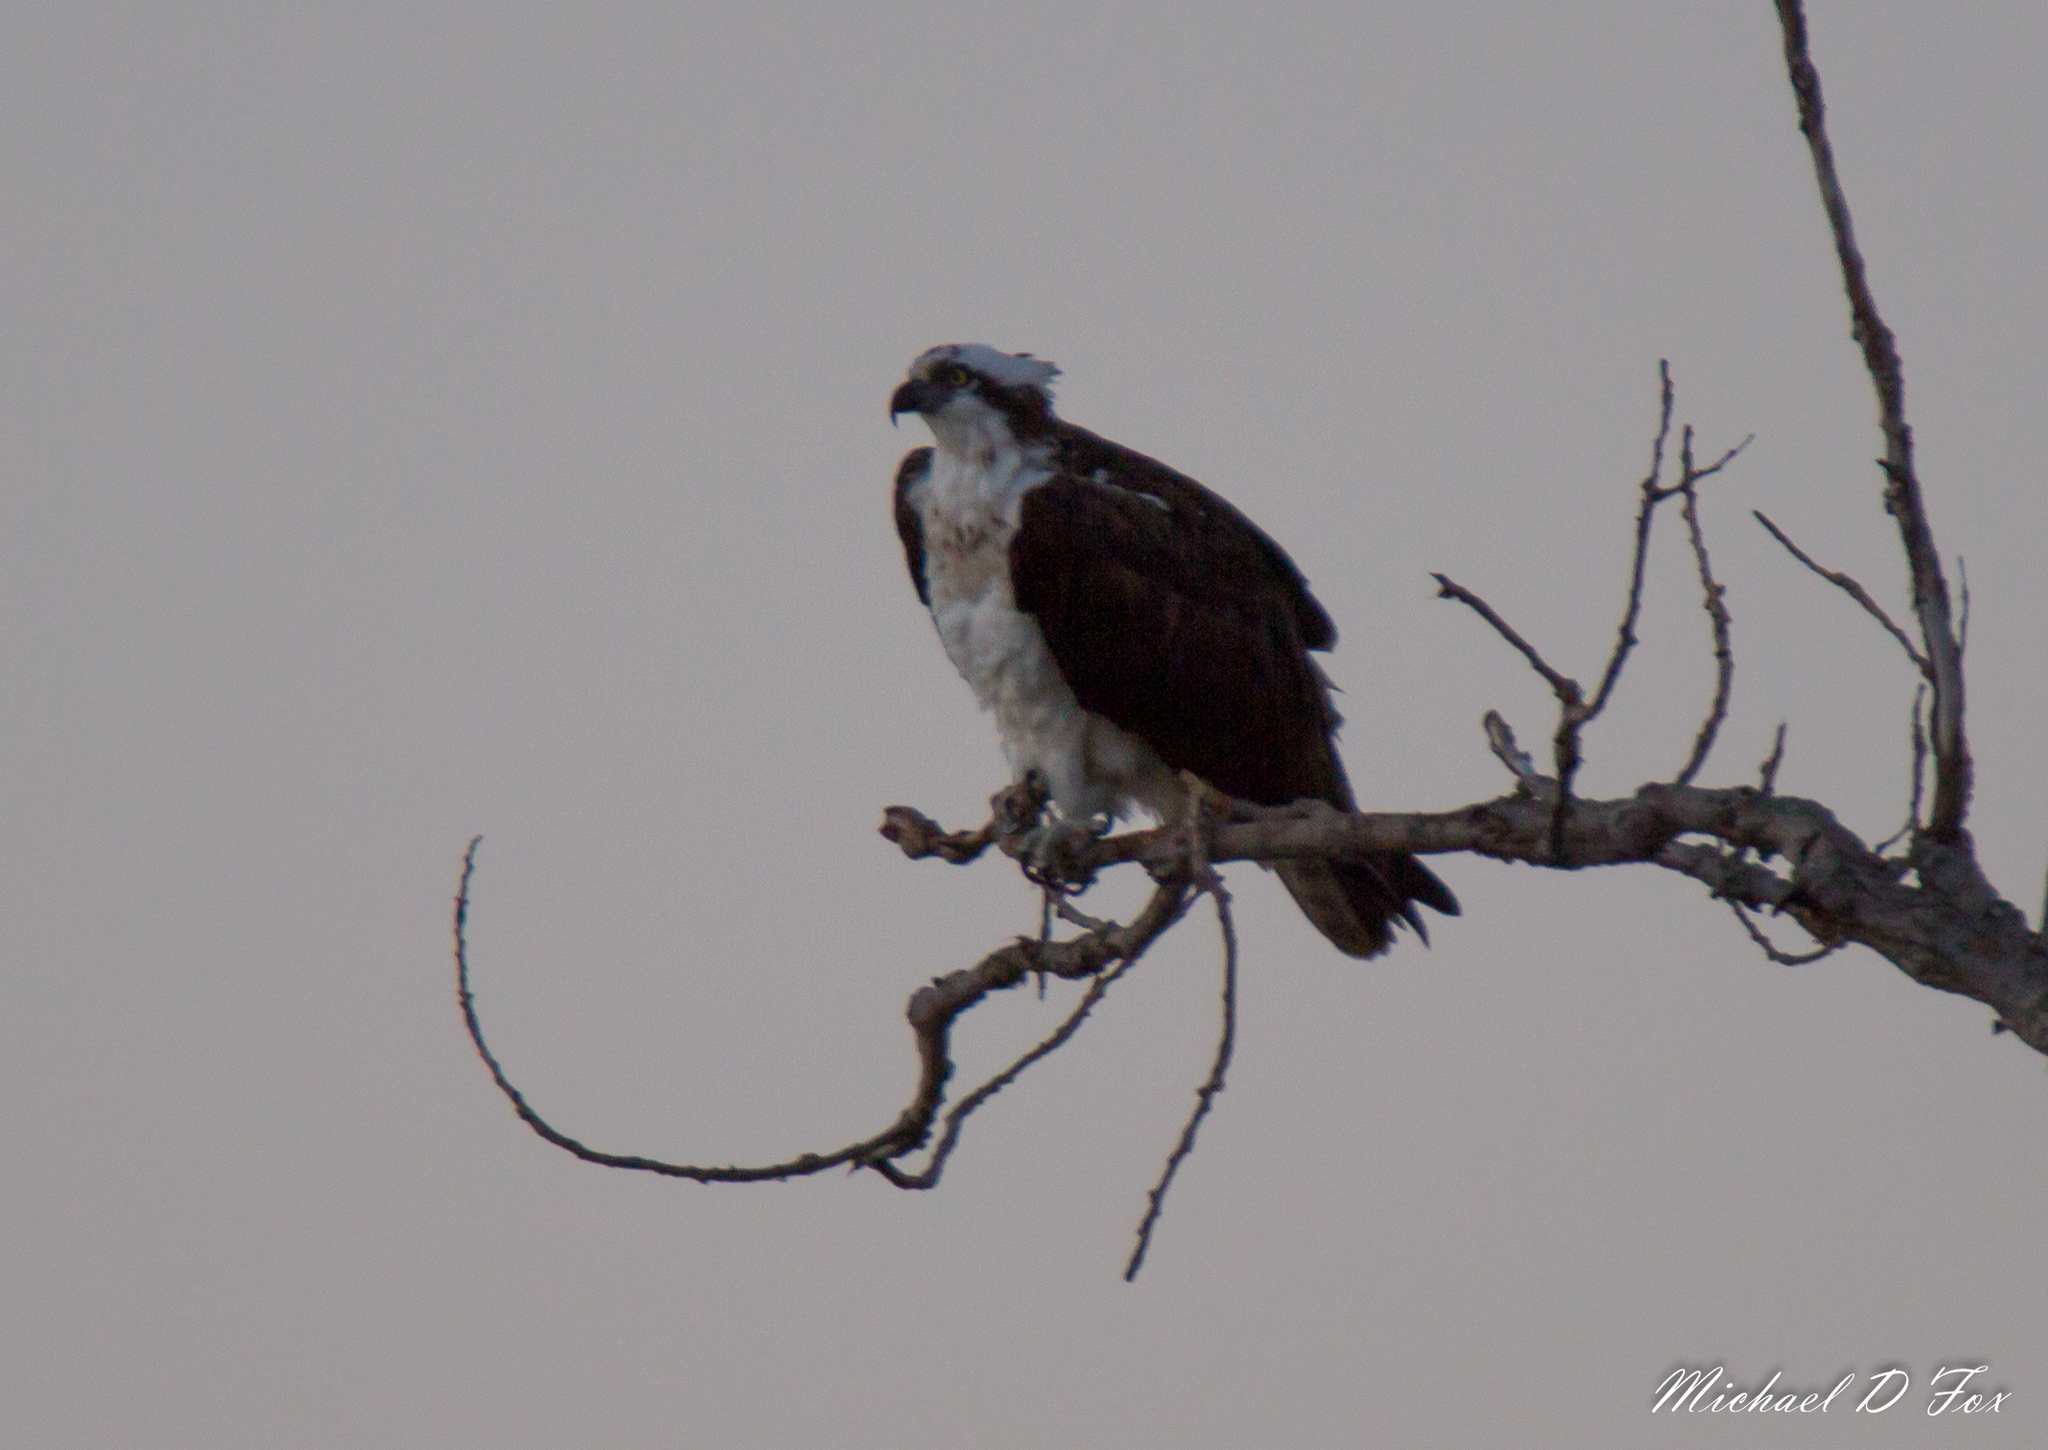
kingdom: Animalia
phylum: Chordata
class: Aves
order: Accipitriformes
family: Pandionidae
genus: Pandion
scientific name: Pandion haliaetus
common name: Osprey
